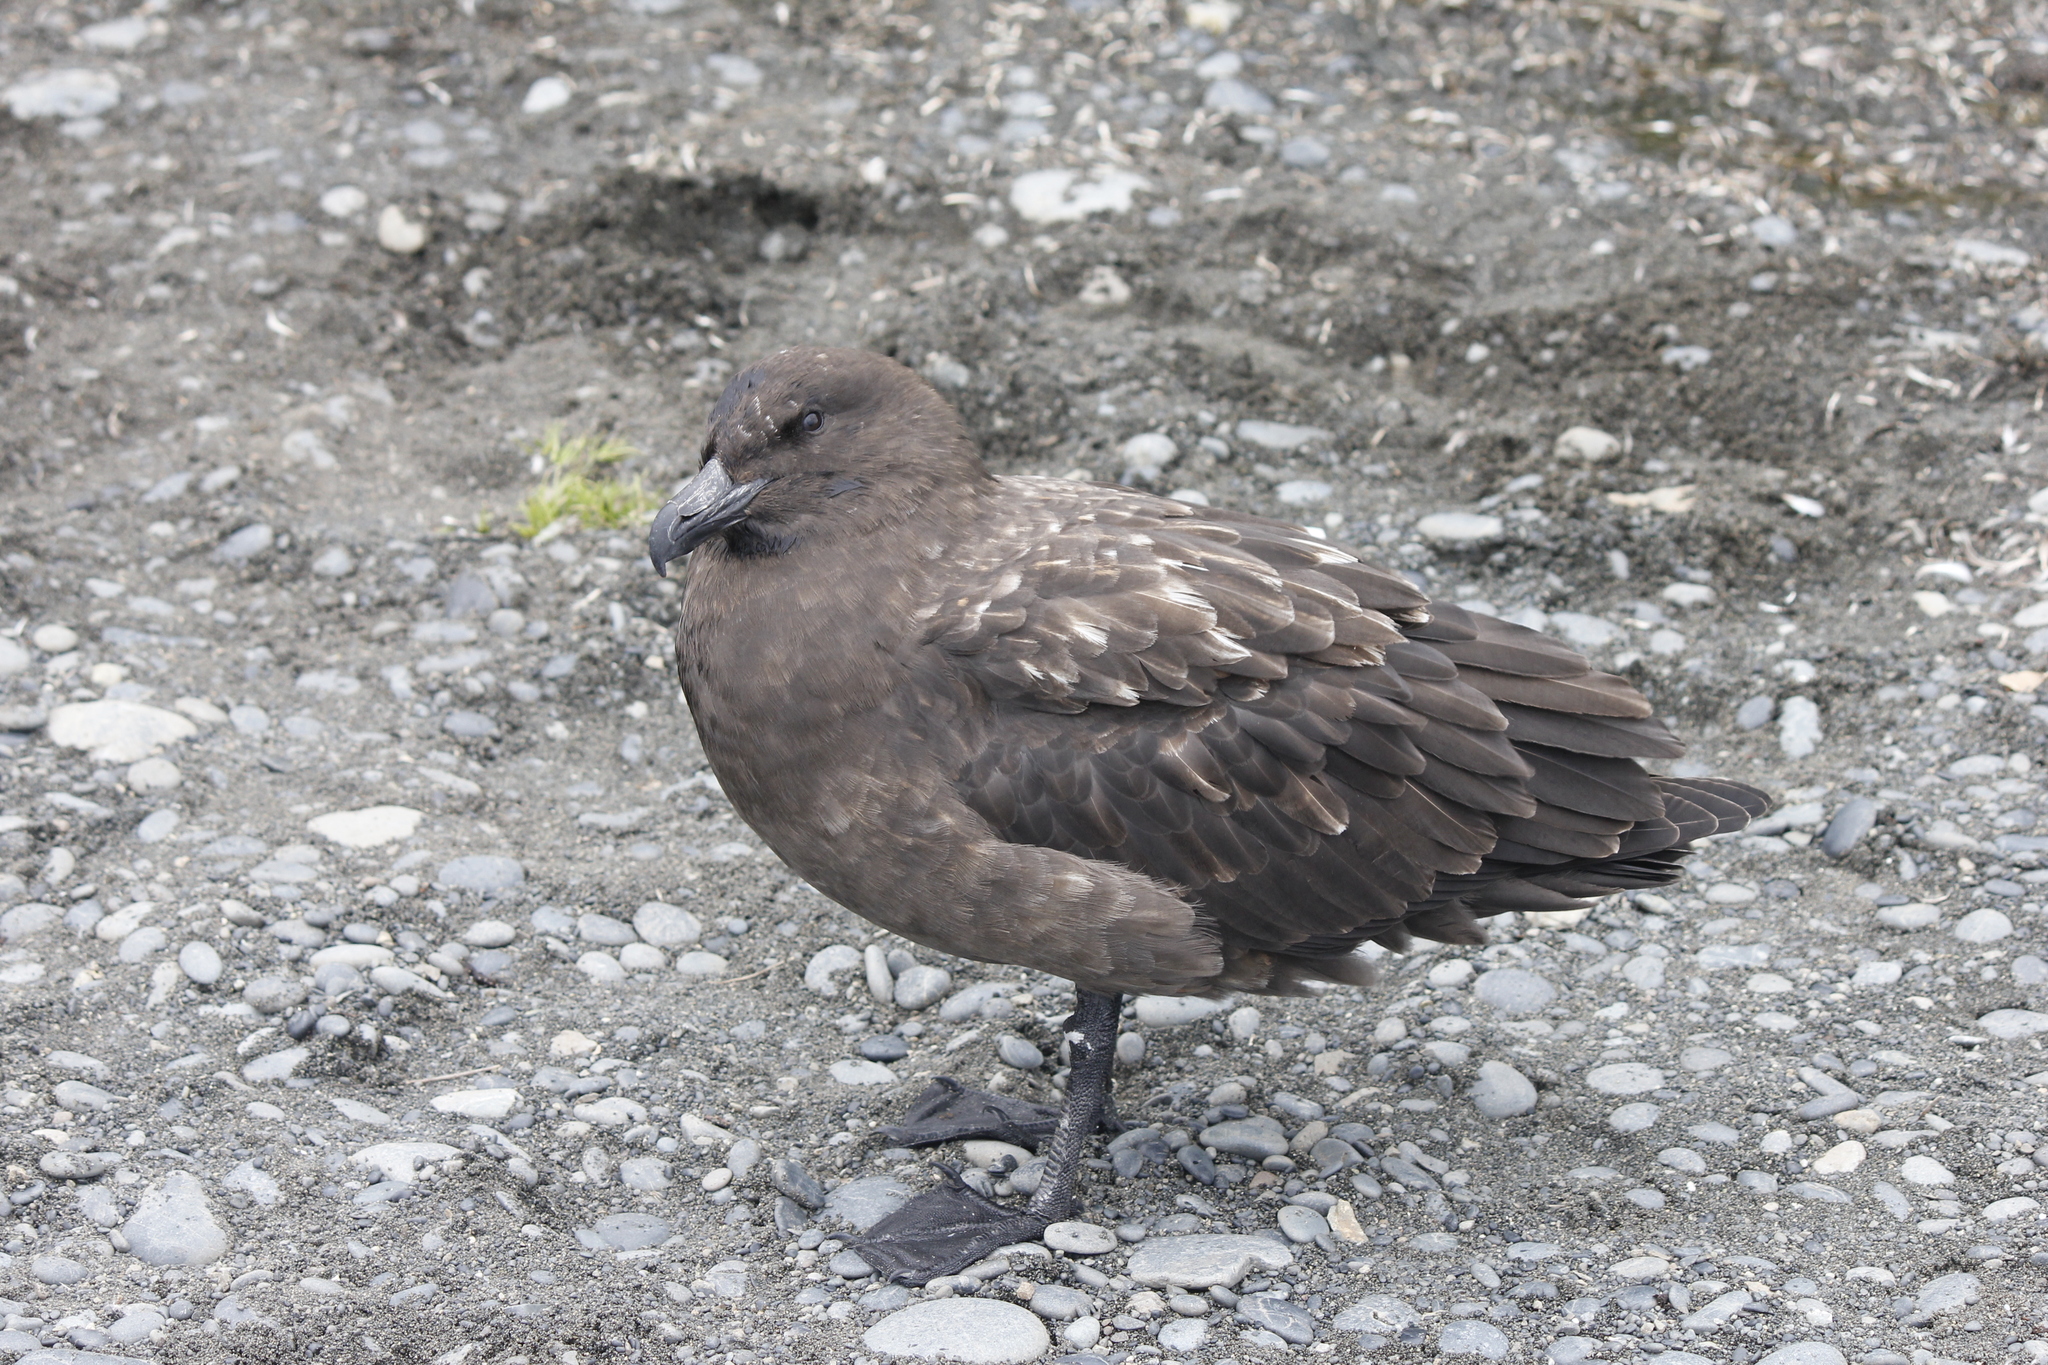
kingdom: Animalia
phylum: Chordata
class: Aves
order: Charadriiformes
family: Stercorariidae
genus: Stercorarius
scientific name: Stercorarius antarcticus
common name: Brown skua
